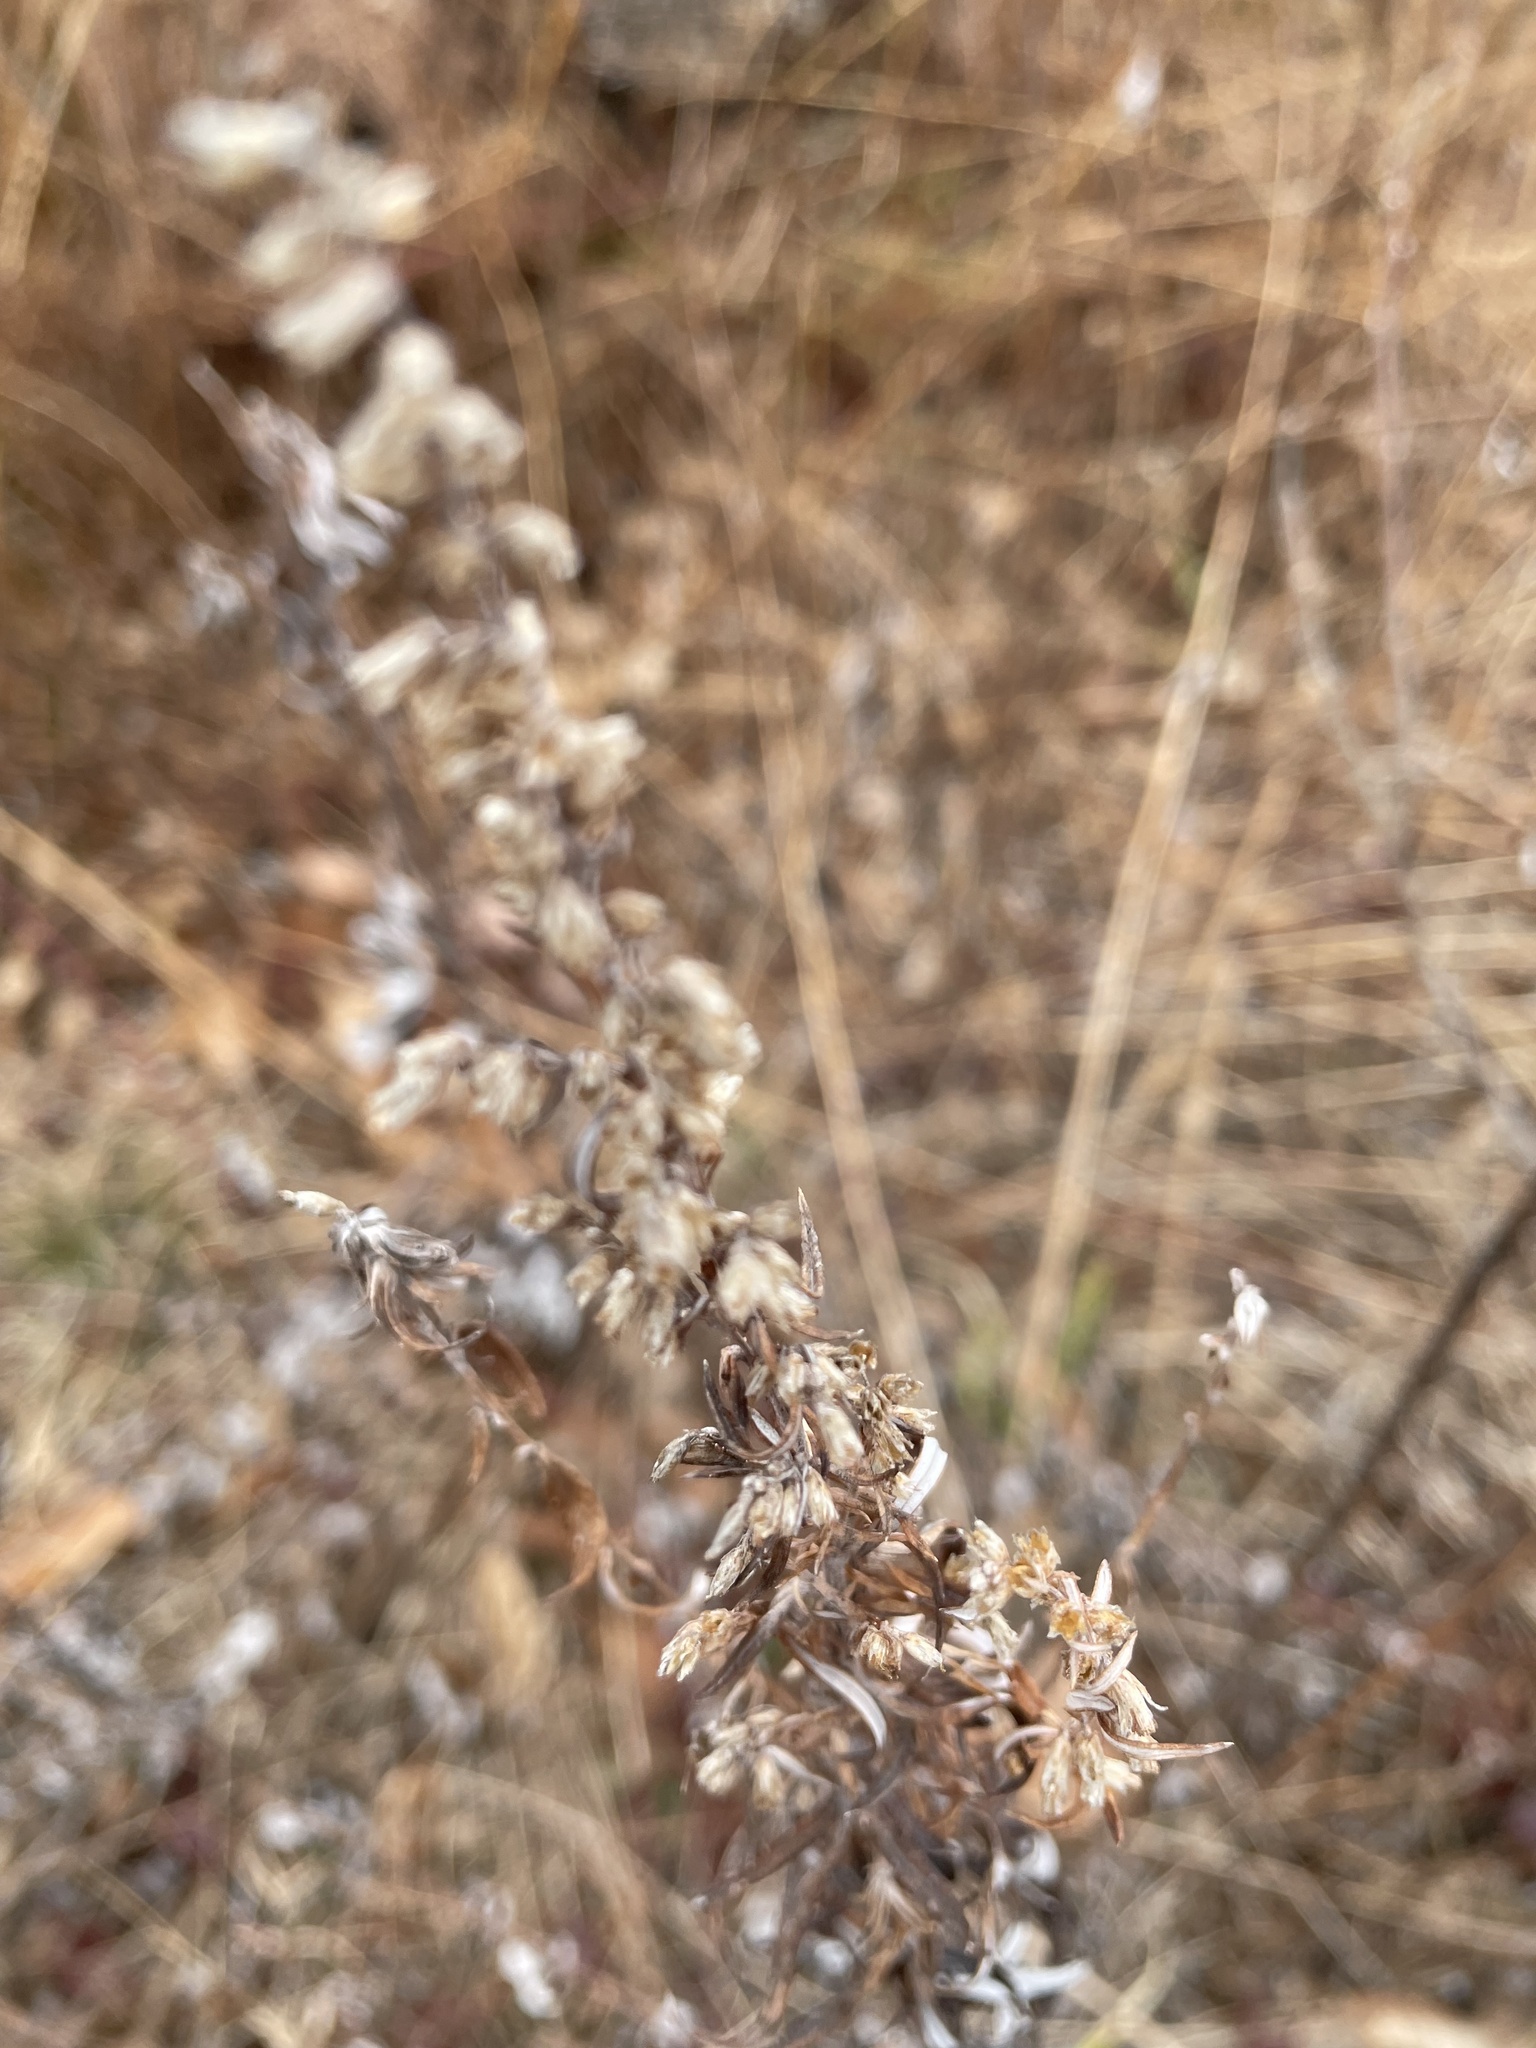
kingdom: Plantae
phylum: Tracheophyta
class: Magnoliopsida
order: Asterales
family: Asteraceae
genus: Artemisia
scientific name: Artemisia vulgaris
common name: Mugwort
